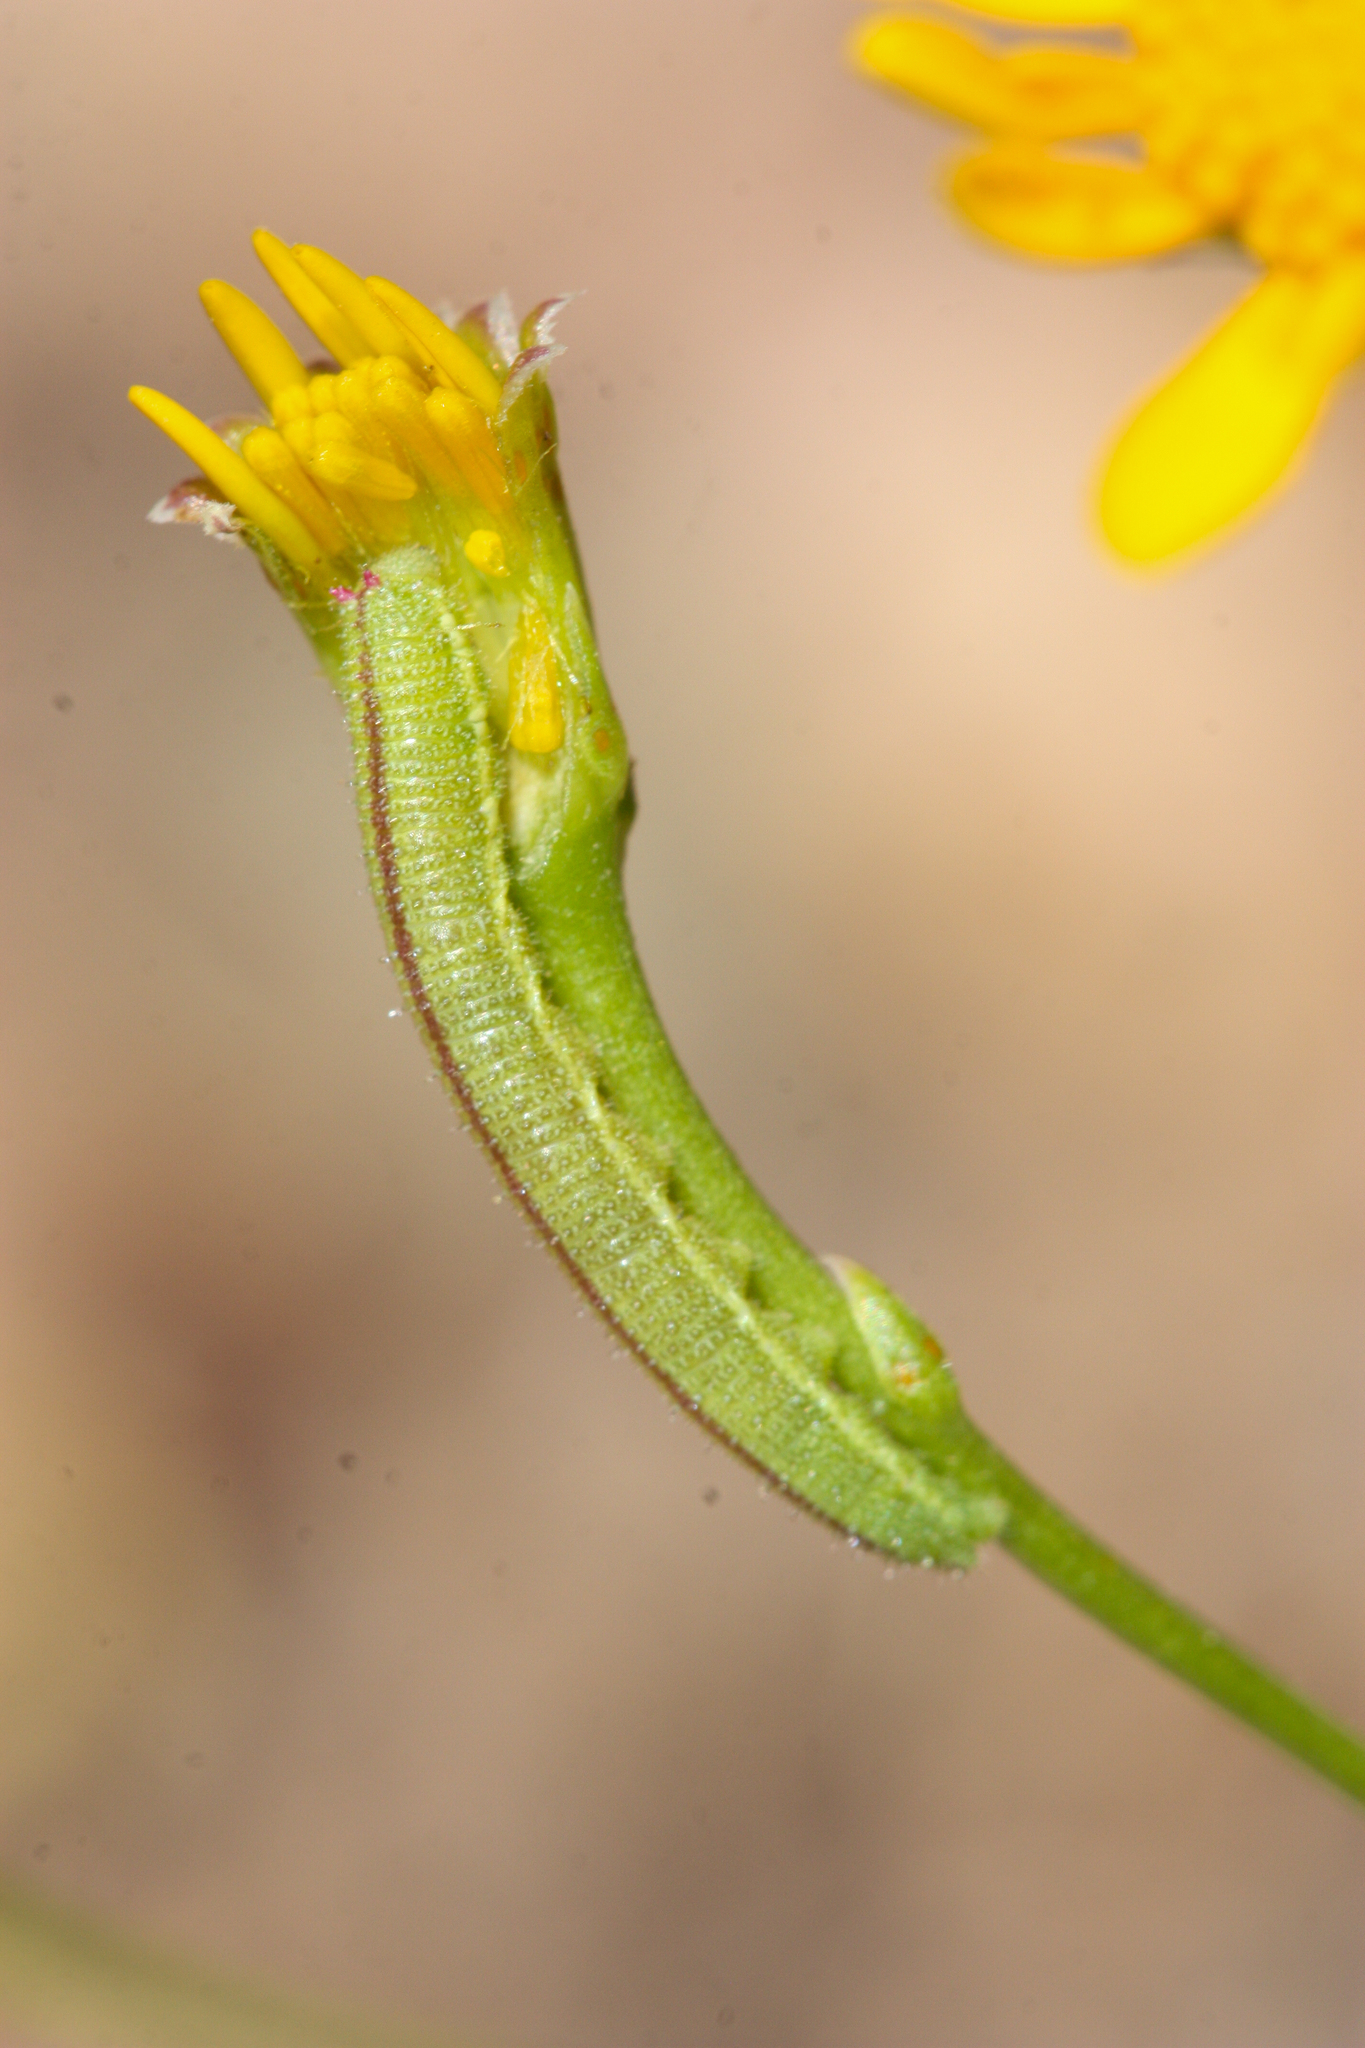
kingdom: Animalia
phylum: Arthropoda
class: Insecta
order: Lepidoptera
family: Pieridae
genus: Nathalis
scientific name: Nathalis iole
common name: Dainty sulphur
